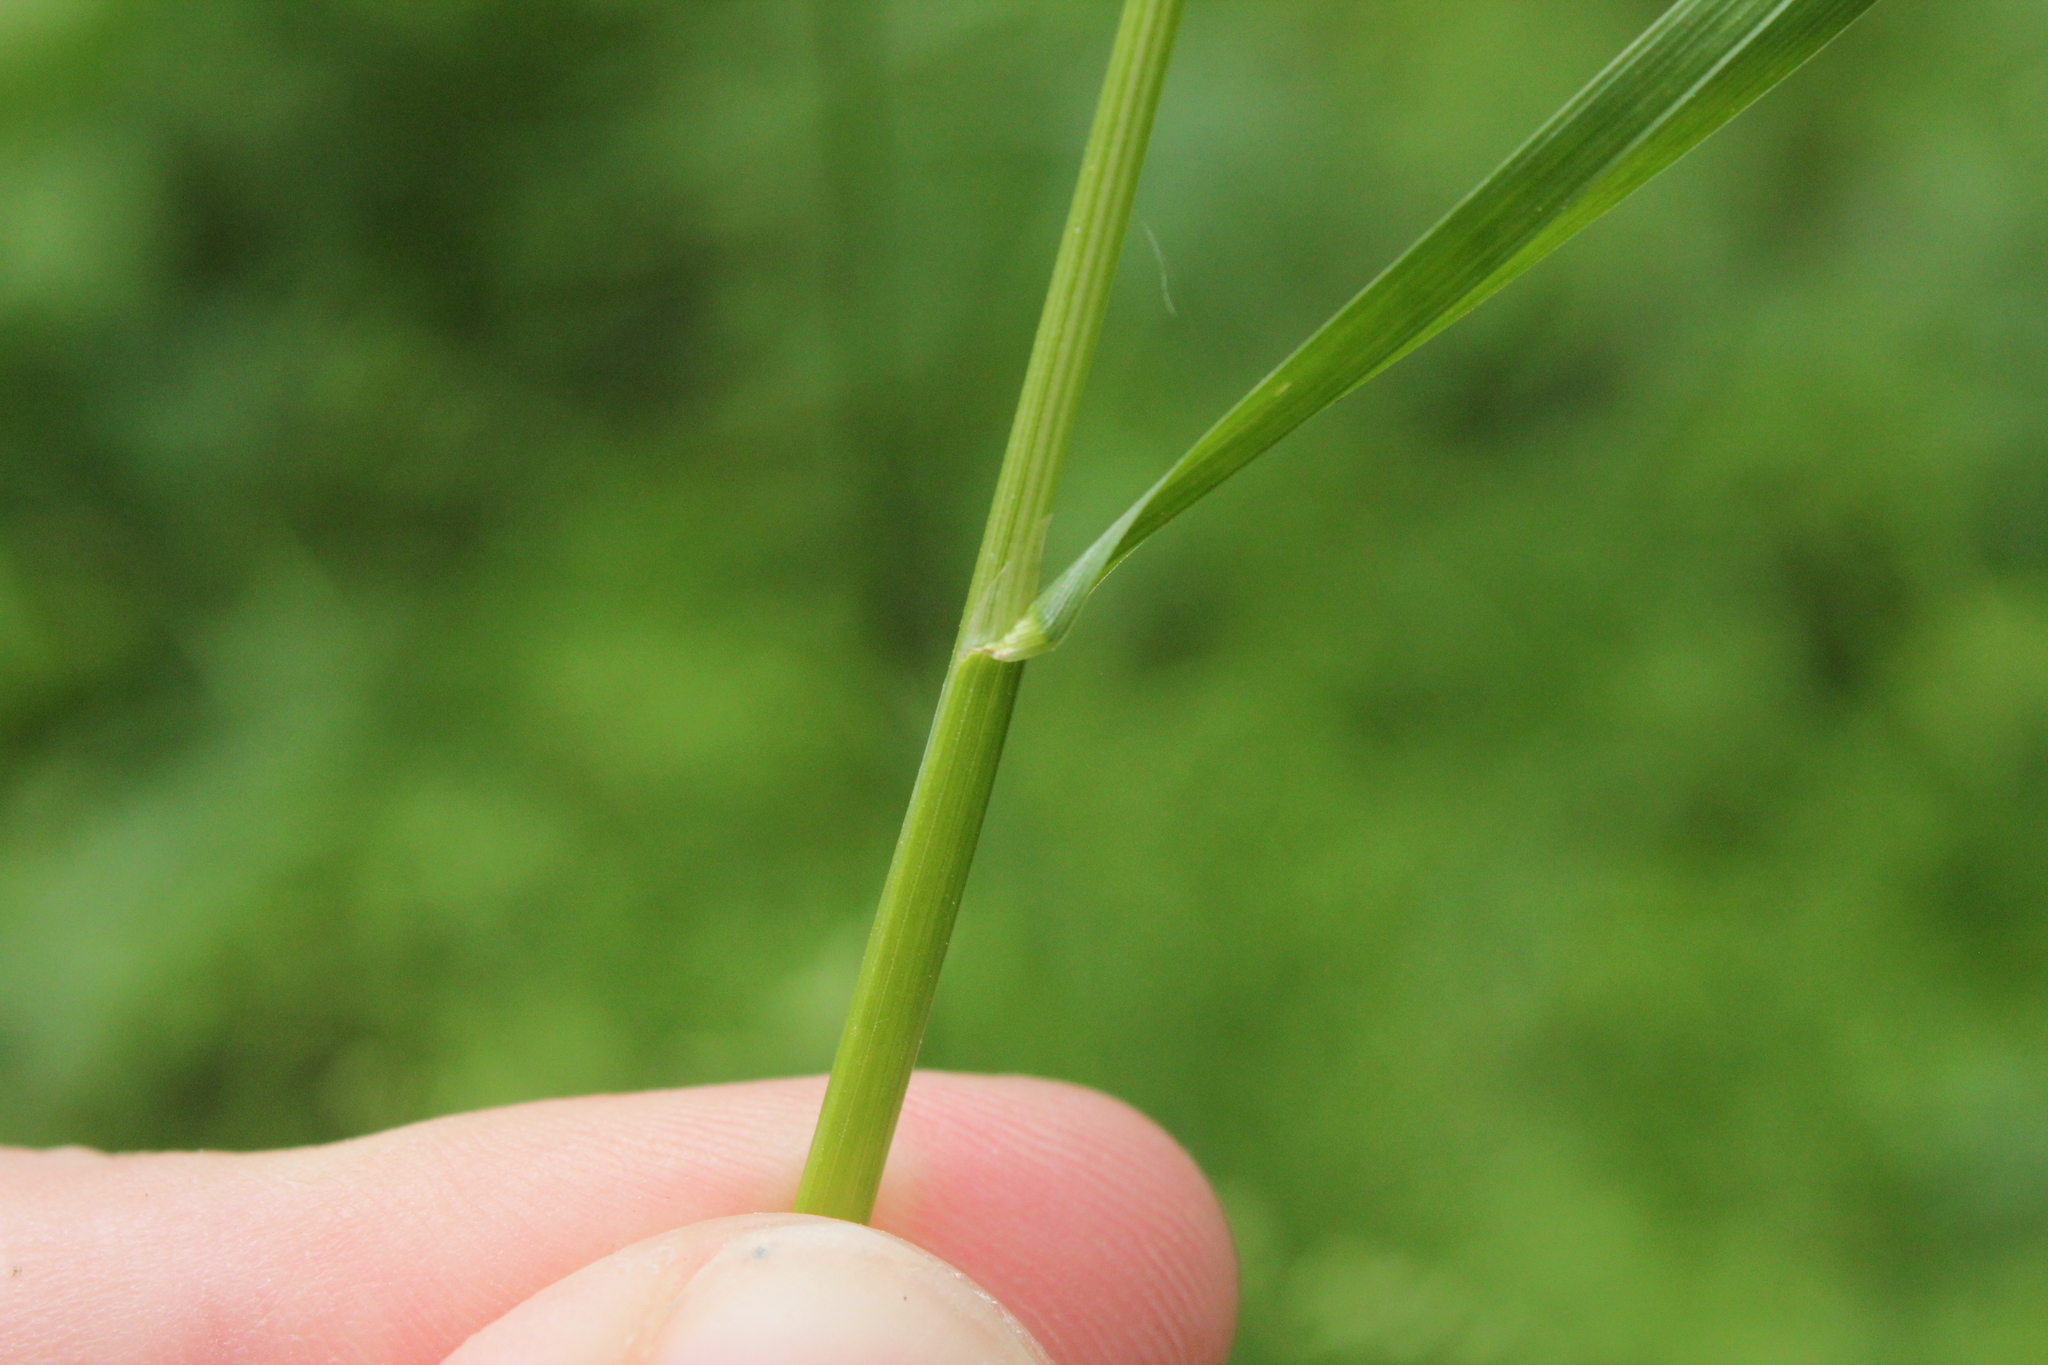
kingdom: Plantae
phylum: Tracheophyta
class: Liliopsida
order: Poales
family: Poaceae
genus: Poa
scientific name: Poa pratensis
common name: Kentucky bluegrass
